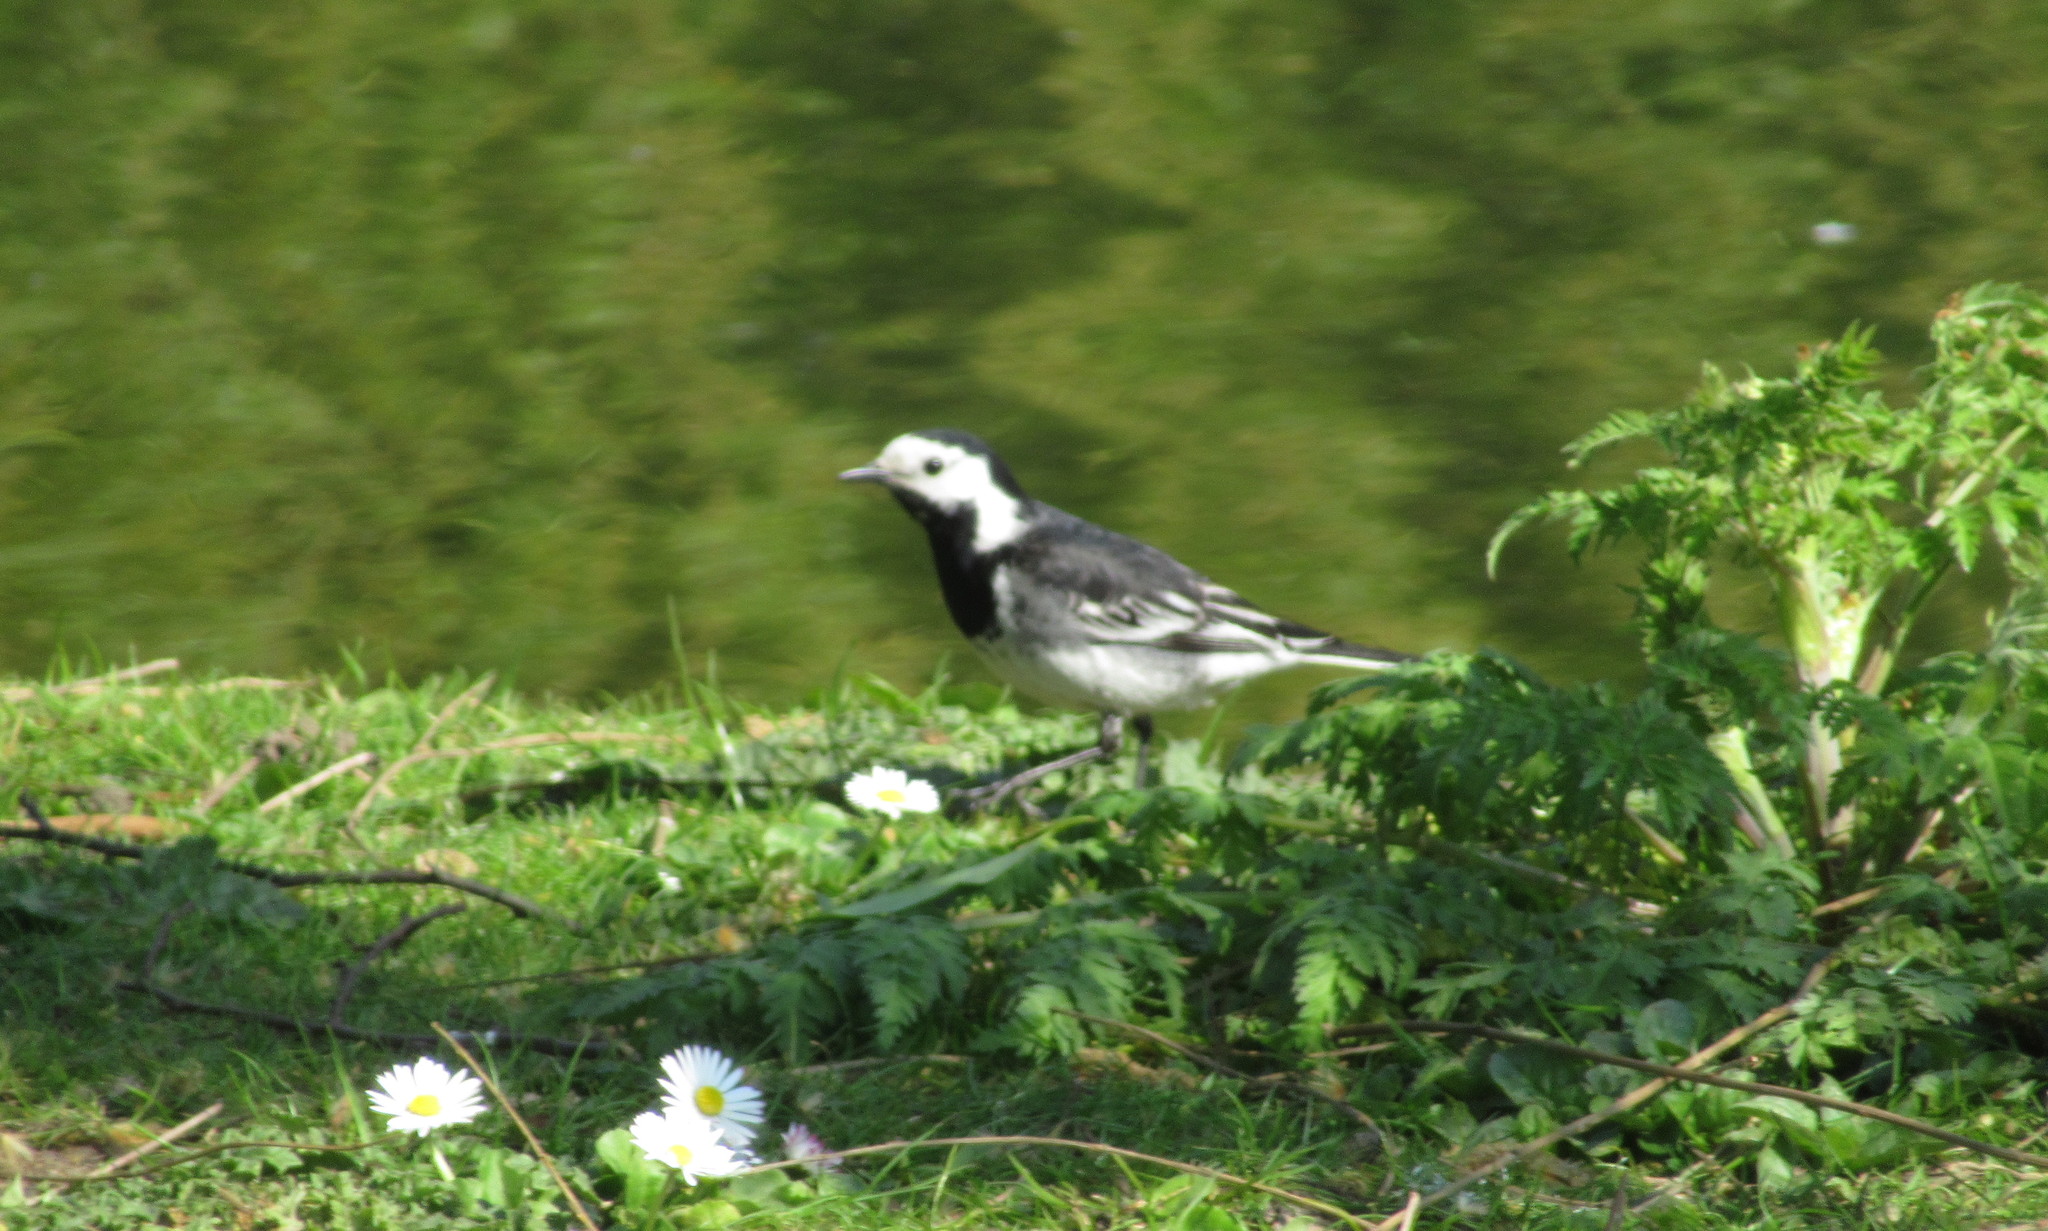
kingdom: Animalia
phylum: Chordata
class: Aves
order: Passeriformes
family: Motacillidae
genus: Motacilla
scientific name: Motacilla alba
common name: White wagtail
